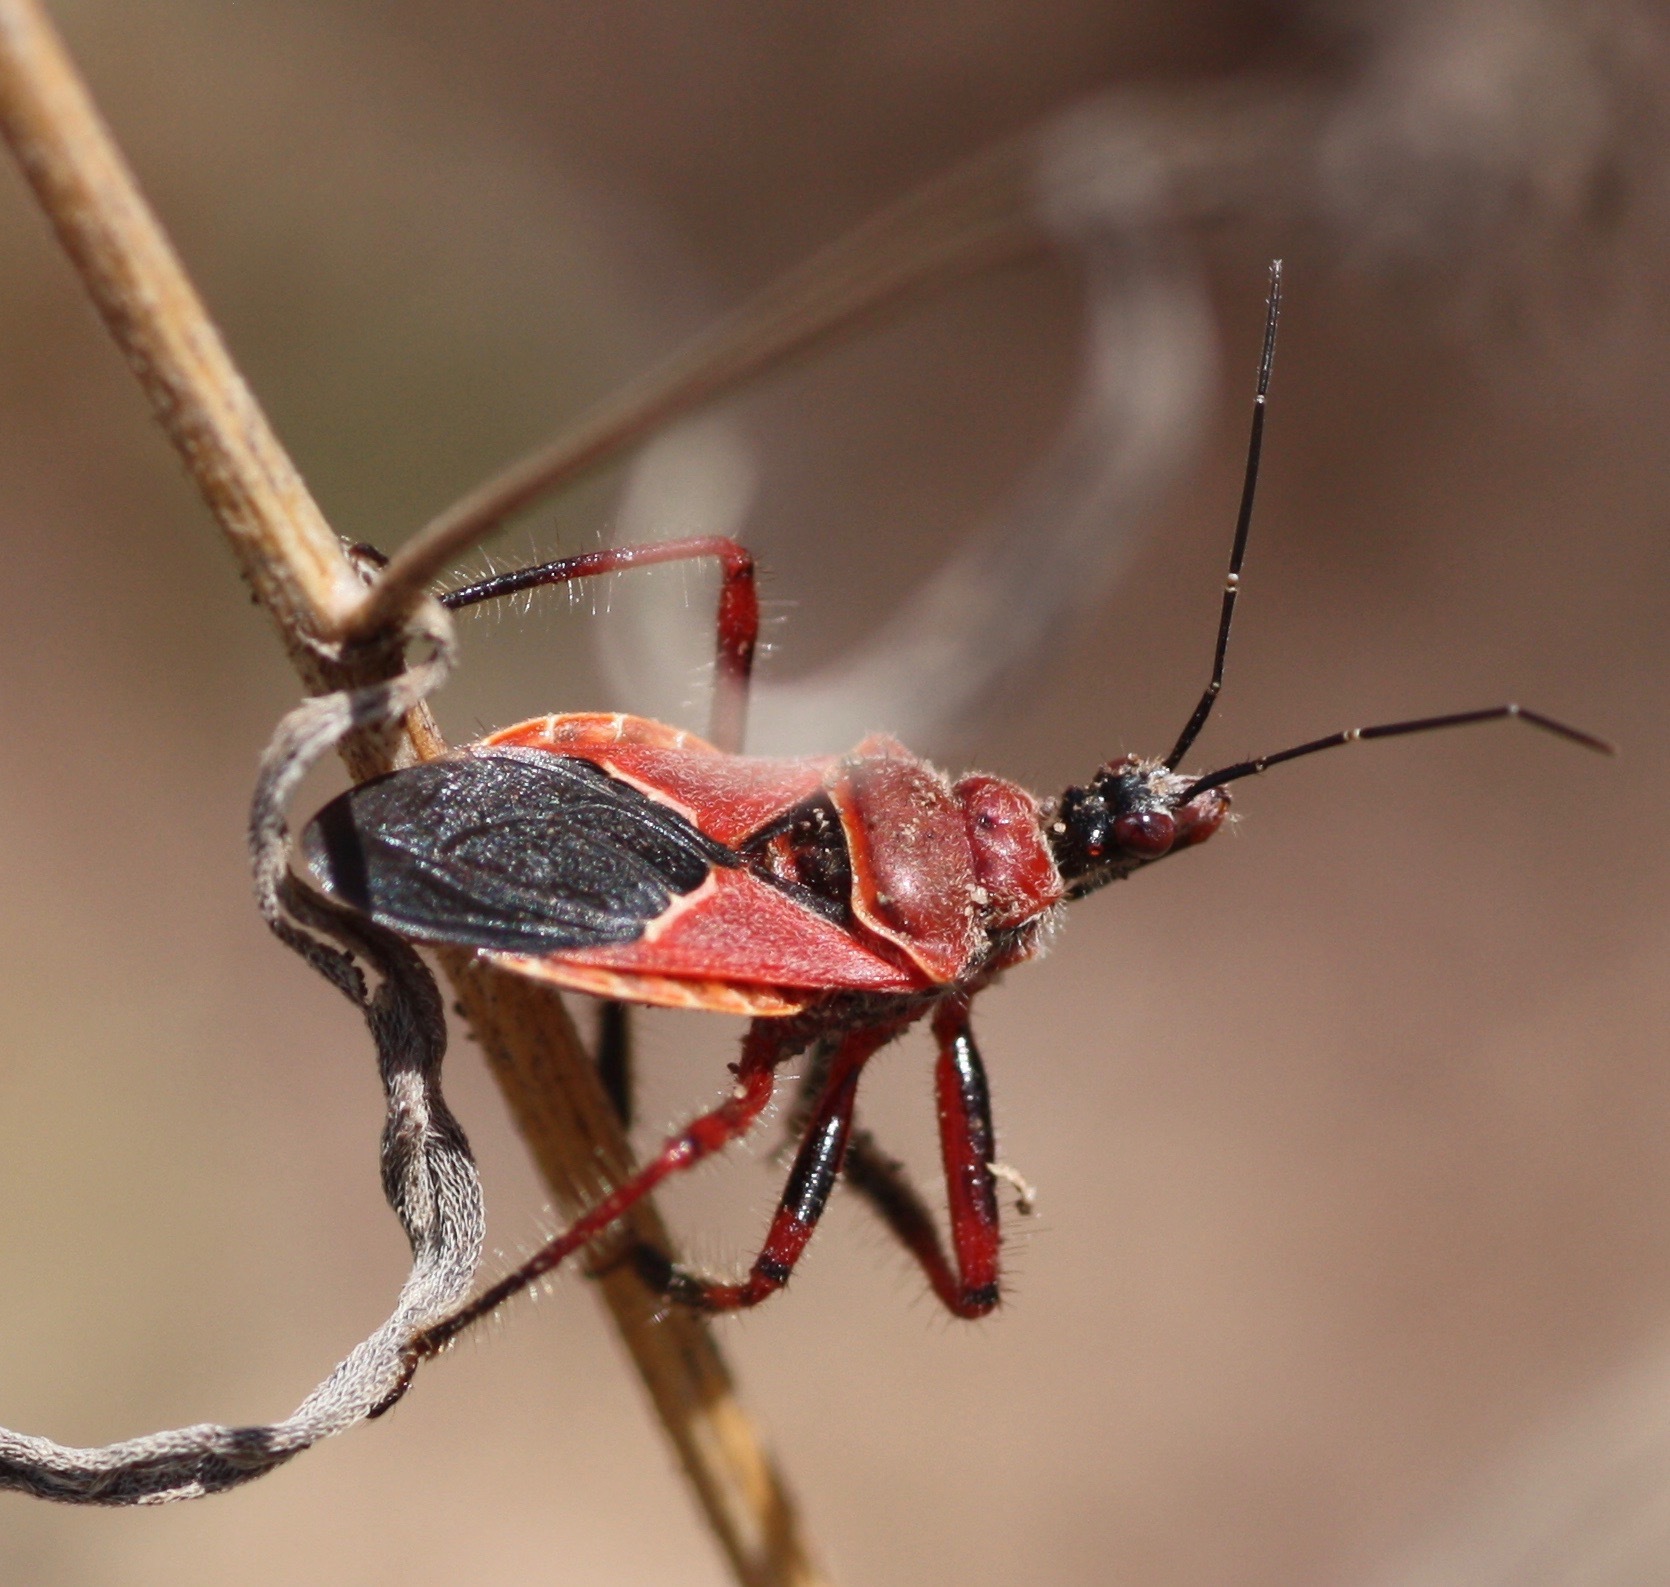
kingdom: Animalia
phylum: Arthropoda
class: Insecta
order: Hemiptera
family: Reduviidae
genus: Apiomerus
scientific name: Apiomerus cazieri
